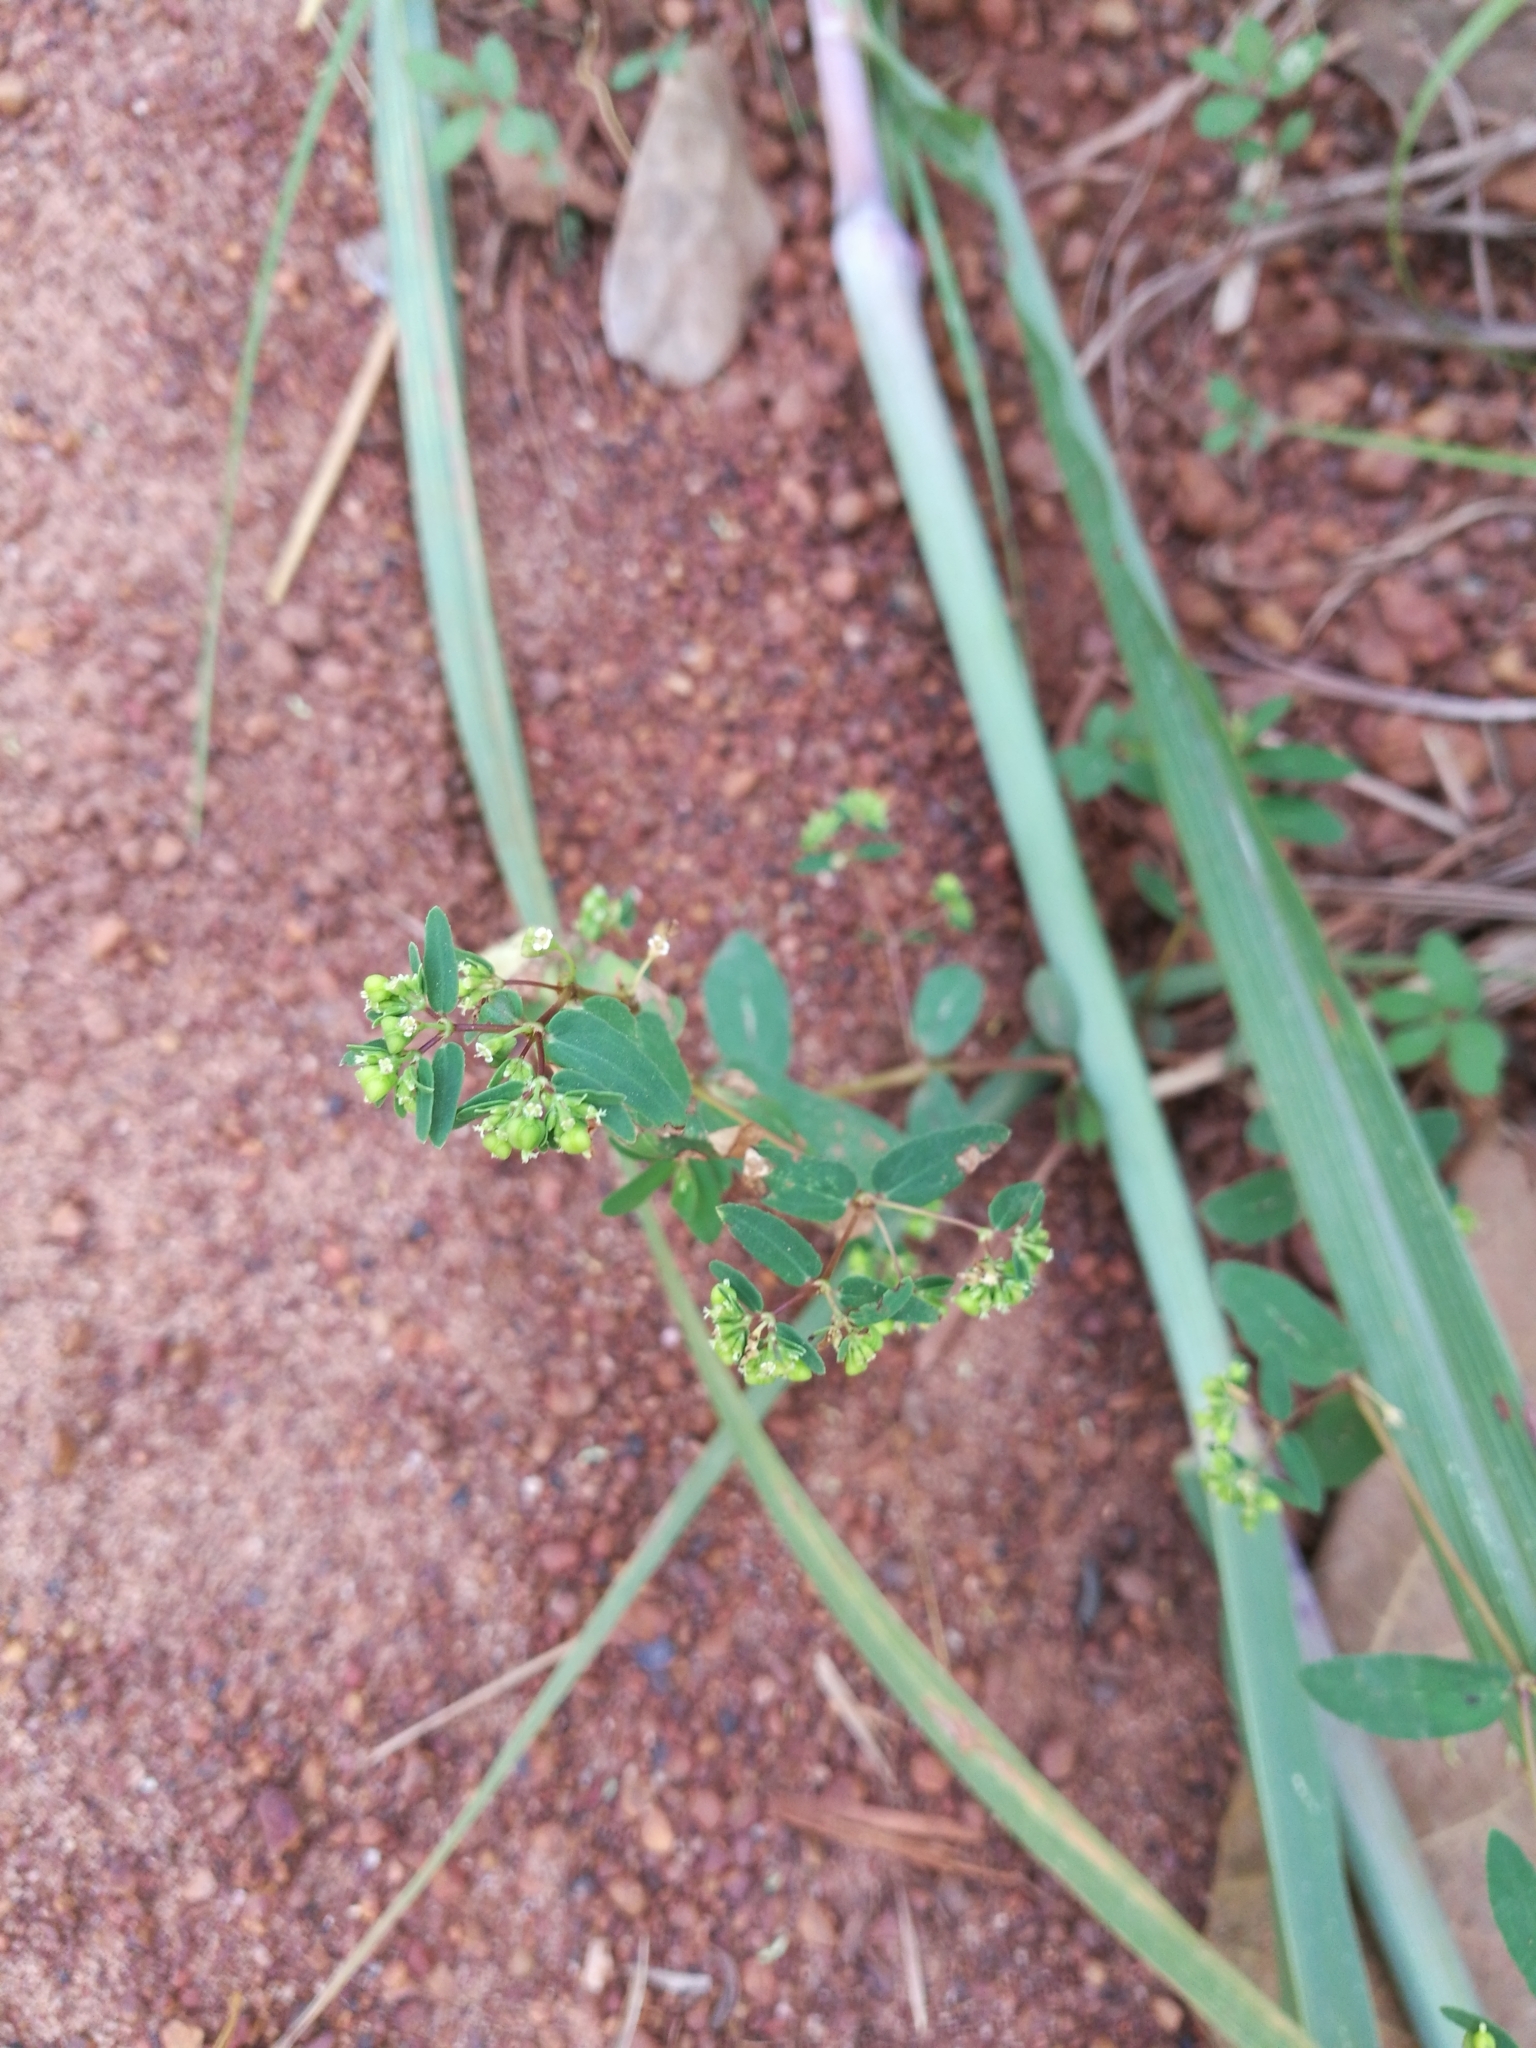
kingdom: Plantae
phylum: Tracheophyta
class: Magnoliopsida
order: Malpighiales
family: Euphorbiaceae
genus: Euphorbia
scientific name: Euphorbia hyssopifolia
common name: Hyssopleaf sandmat
